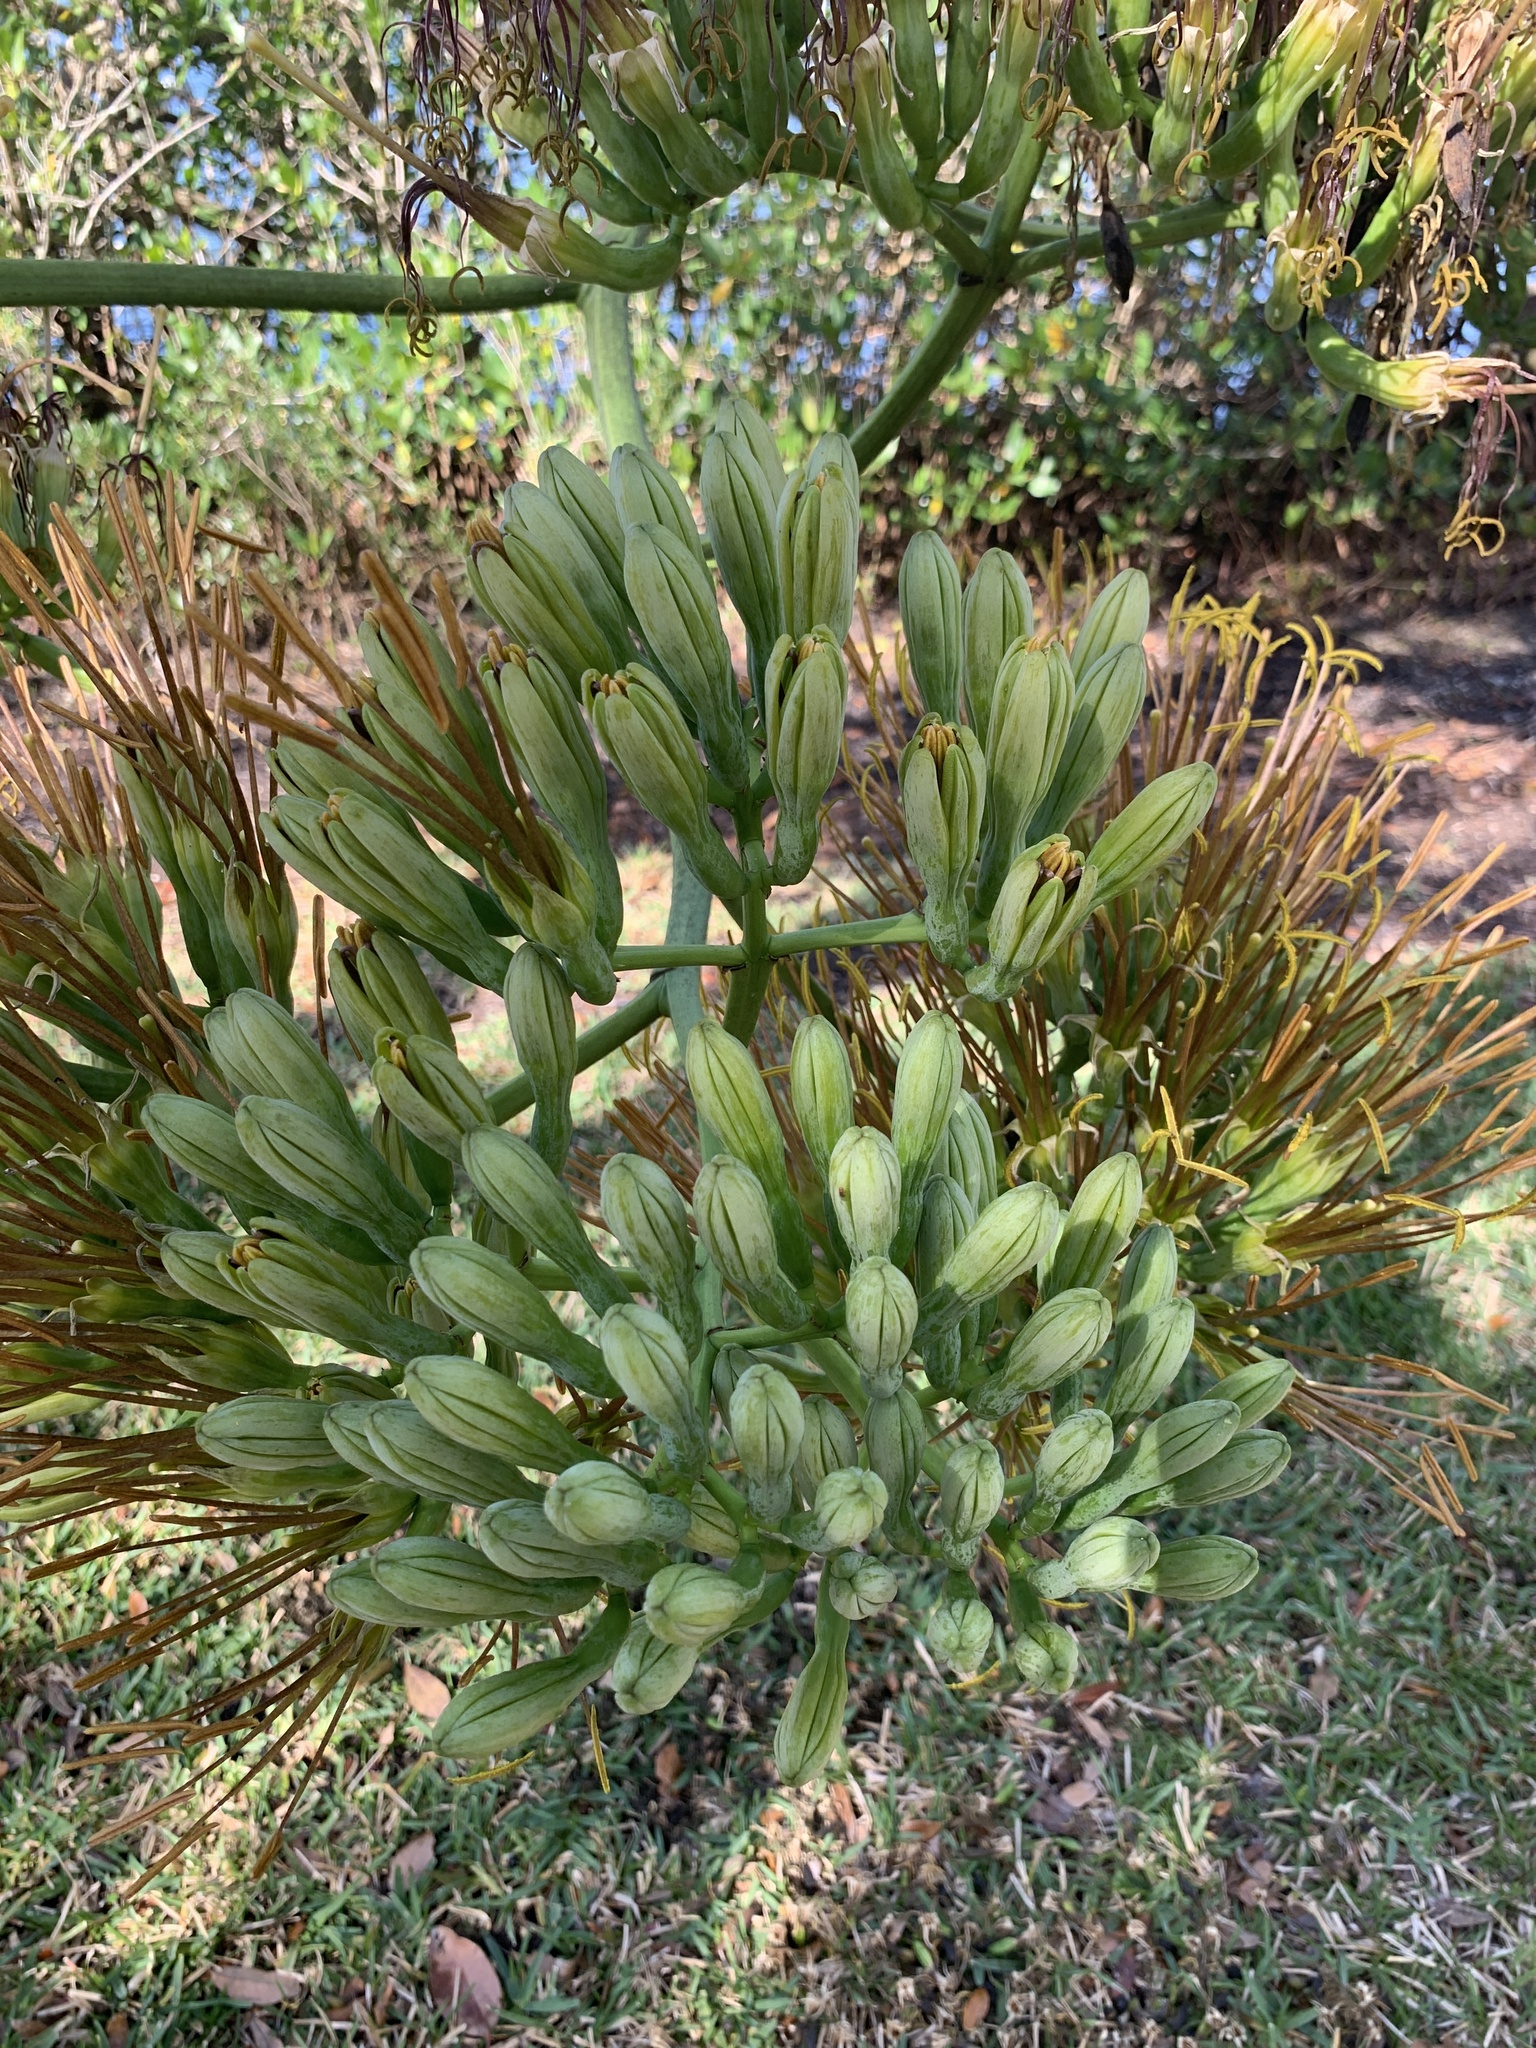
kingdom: Plantae
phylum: Tracheophyta
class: Liliopsida
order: Asparagales
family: Asparagaceae
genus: Agave
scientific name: Agave sisalana
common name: Sisal hemp
